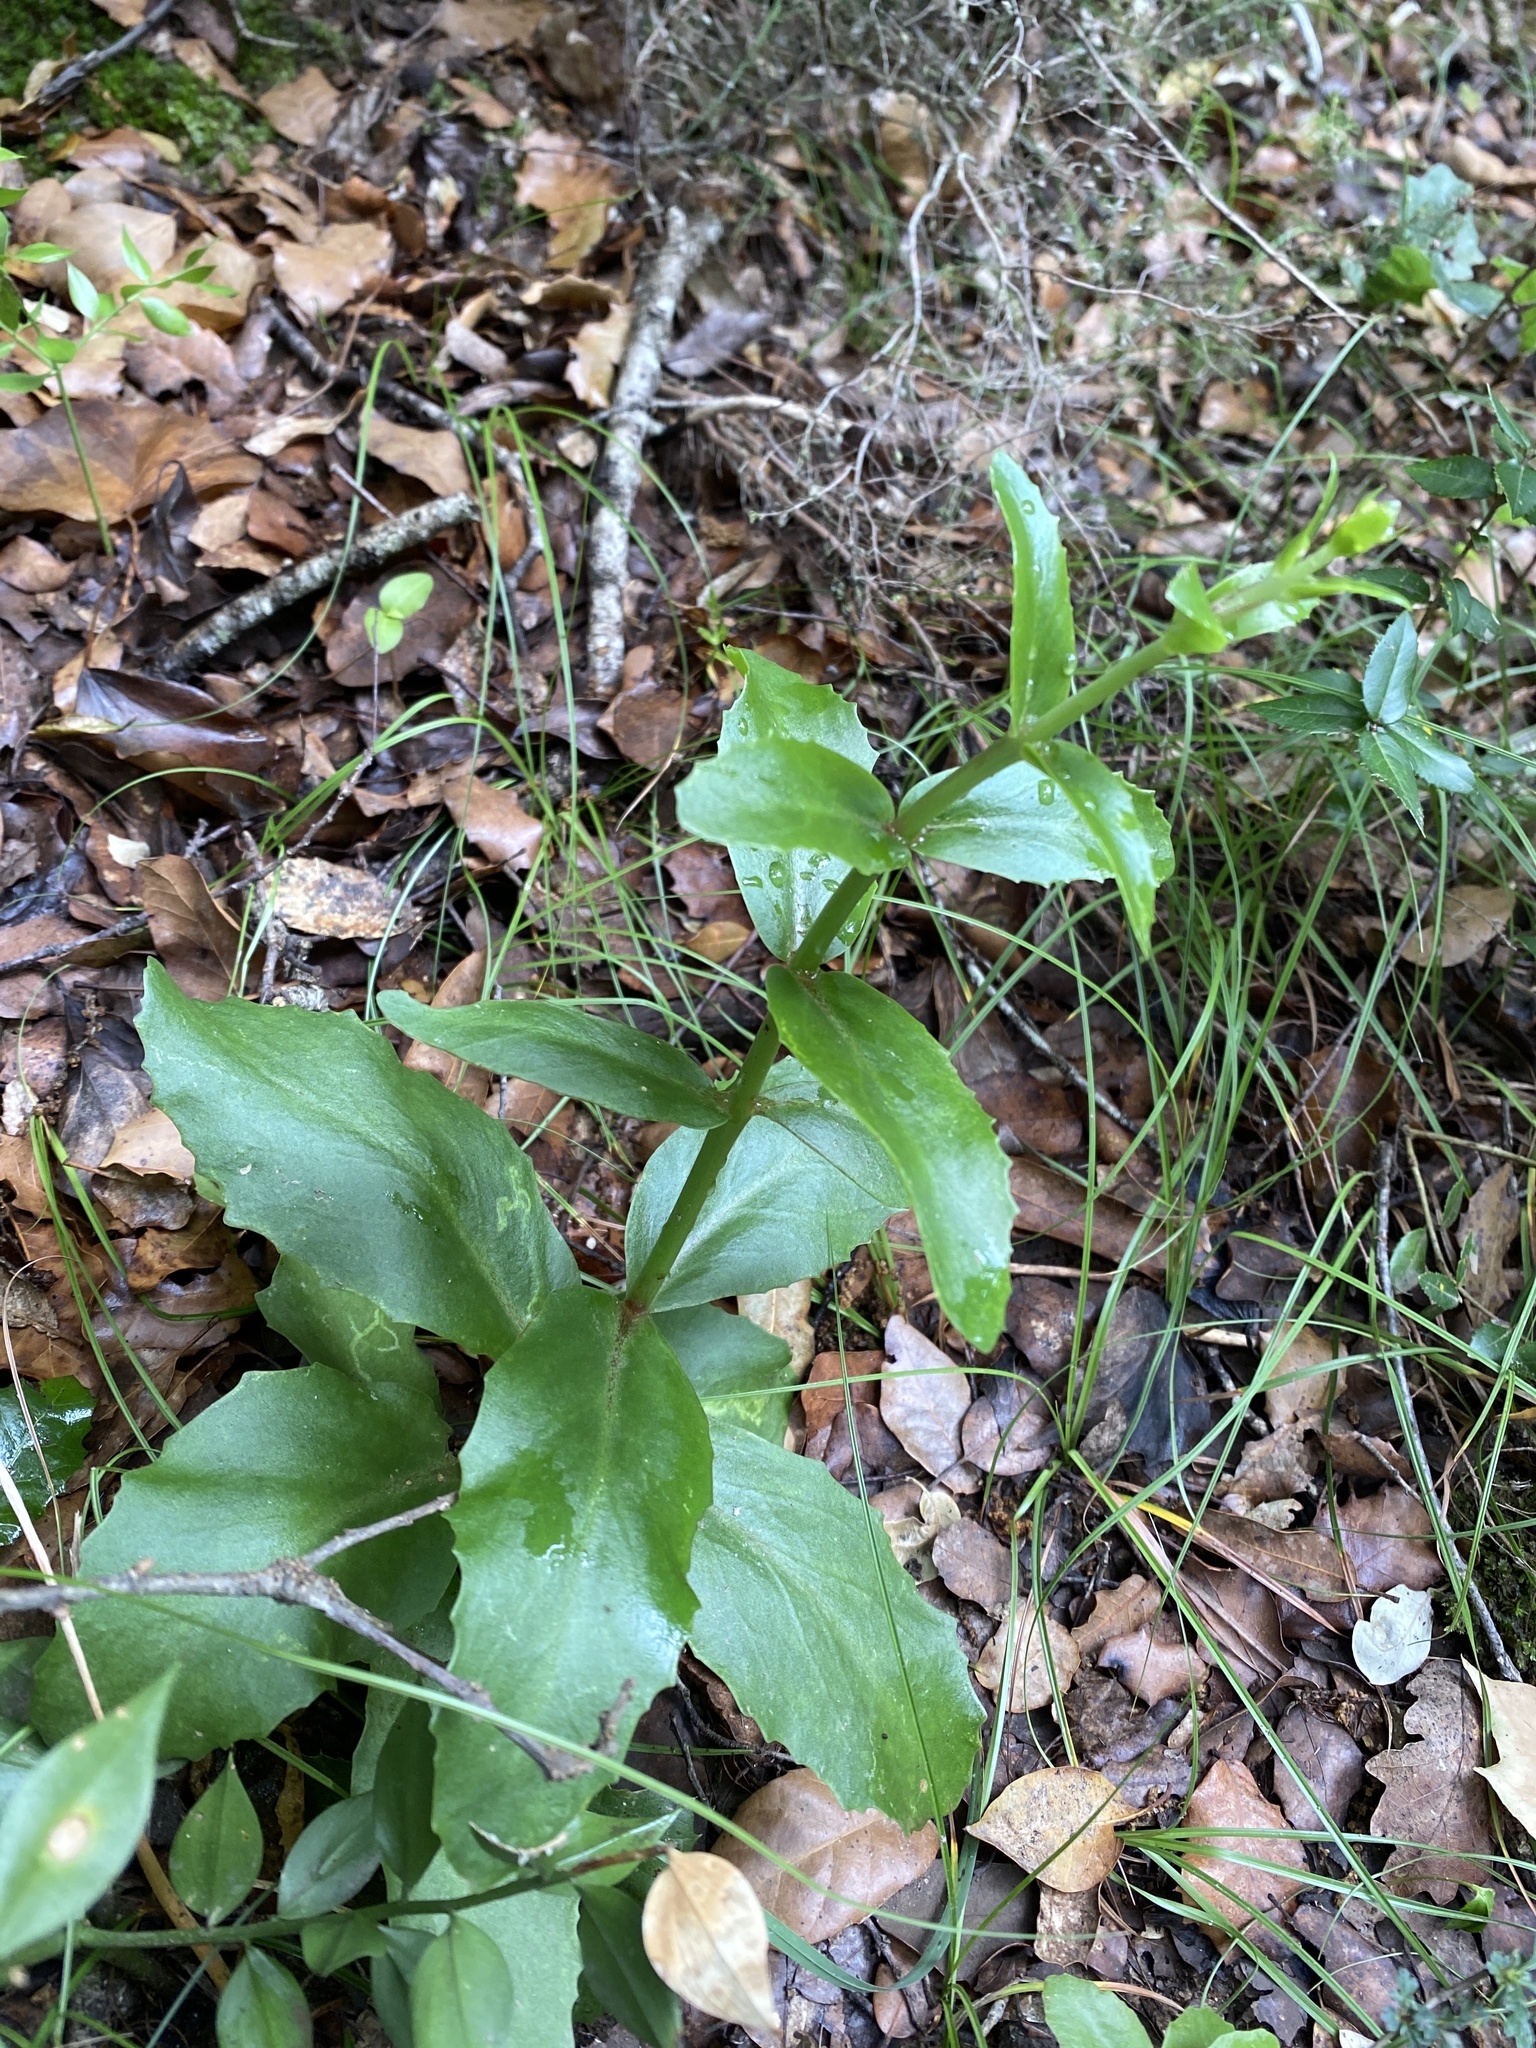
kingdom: Plantae
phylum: Tracheophyta
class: Magnoliopsida
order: Saxifragales
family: Crassulaceae
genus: Hylotelephium
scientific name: Hylotelephium maximum
